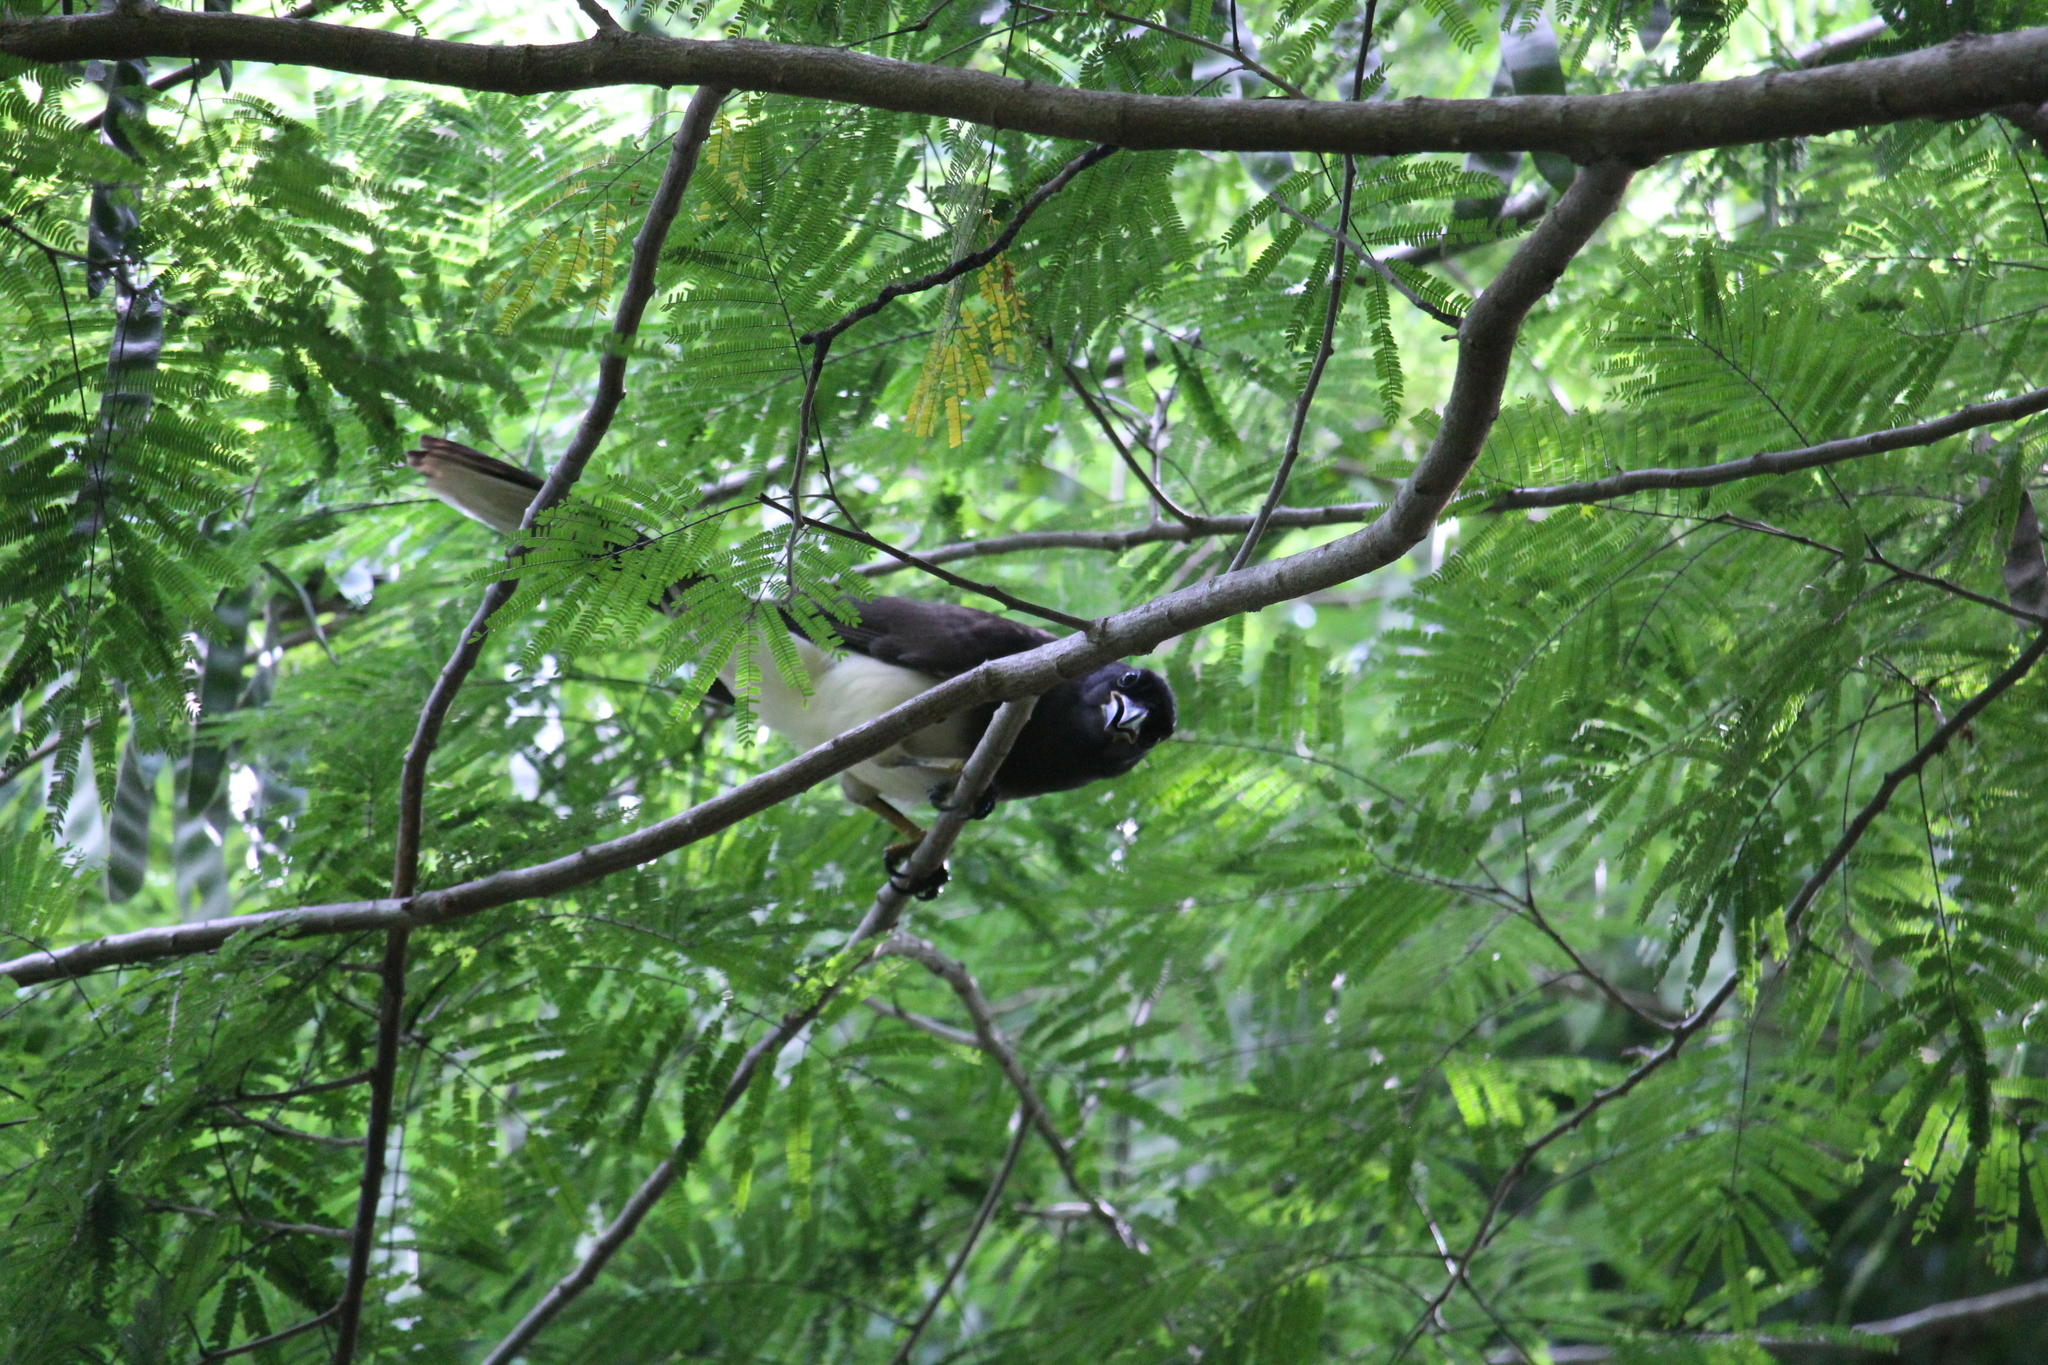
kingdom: Animalia
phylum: Chordata
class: Aves
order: Passeriformes
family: Corvidae
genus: Psilorhinus
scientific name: Psilorhinus morio
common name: Brown jay
